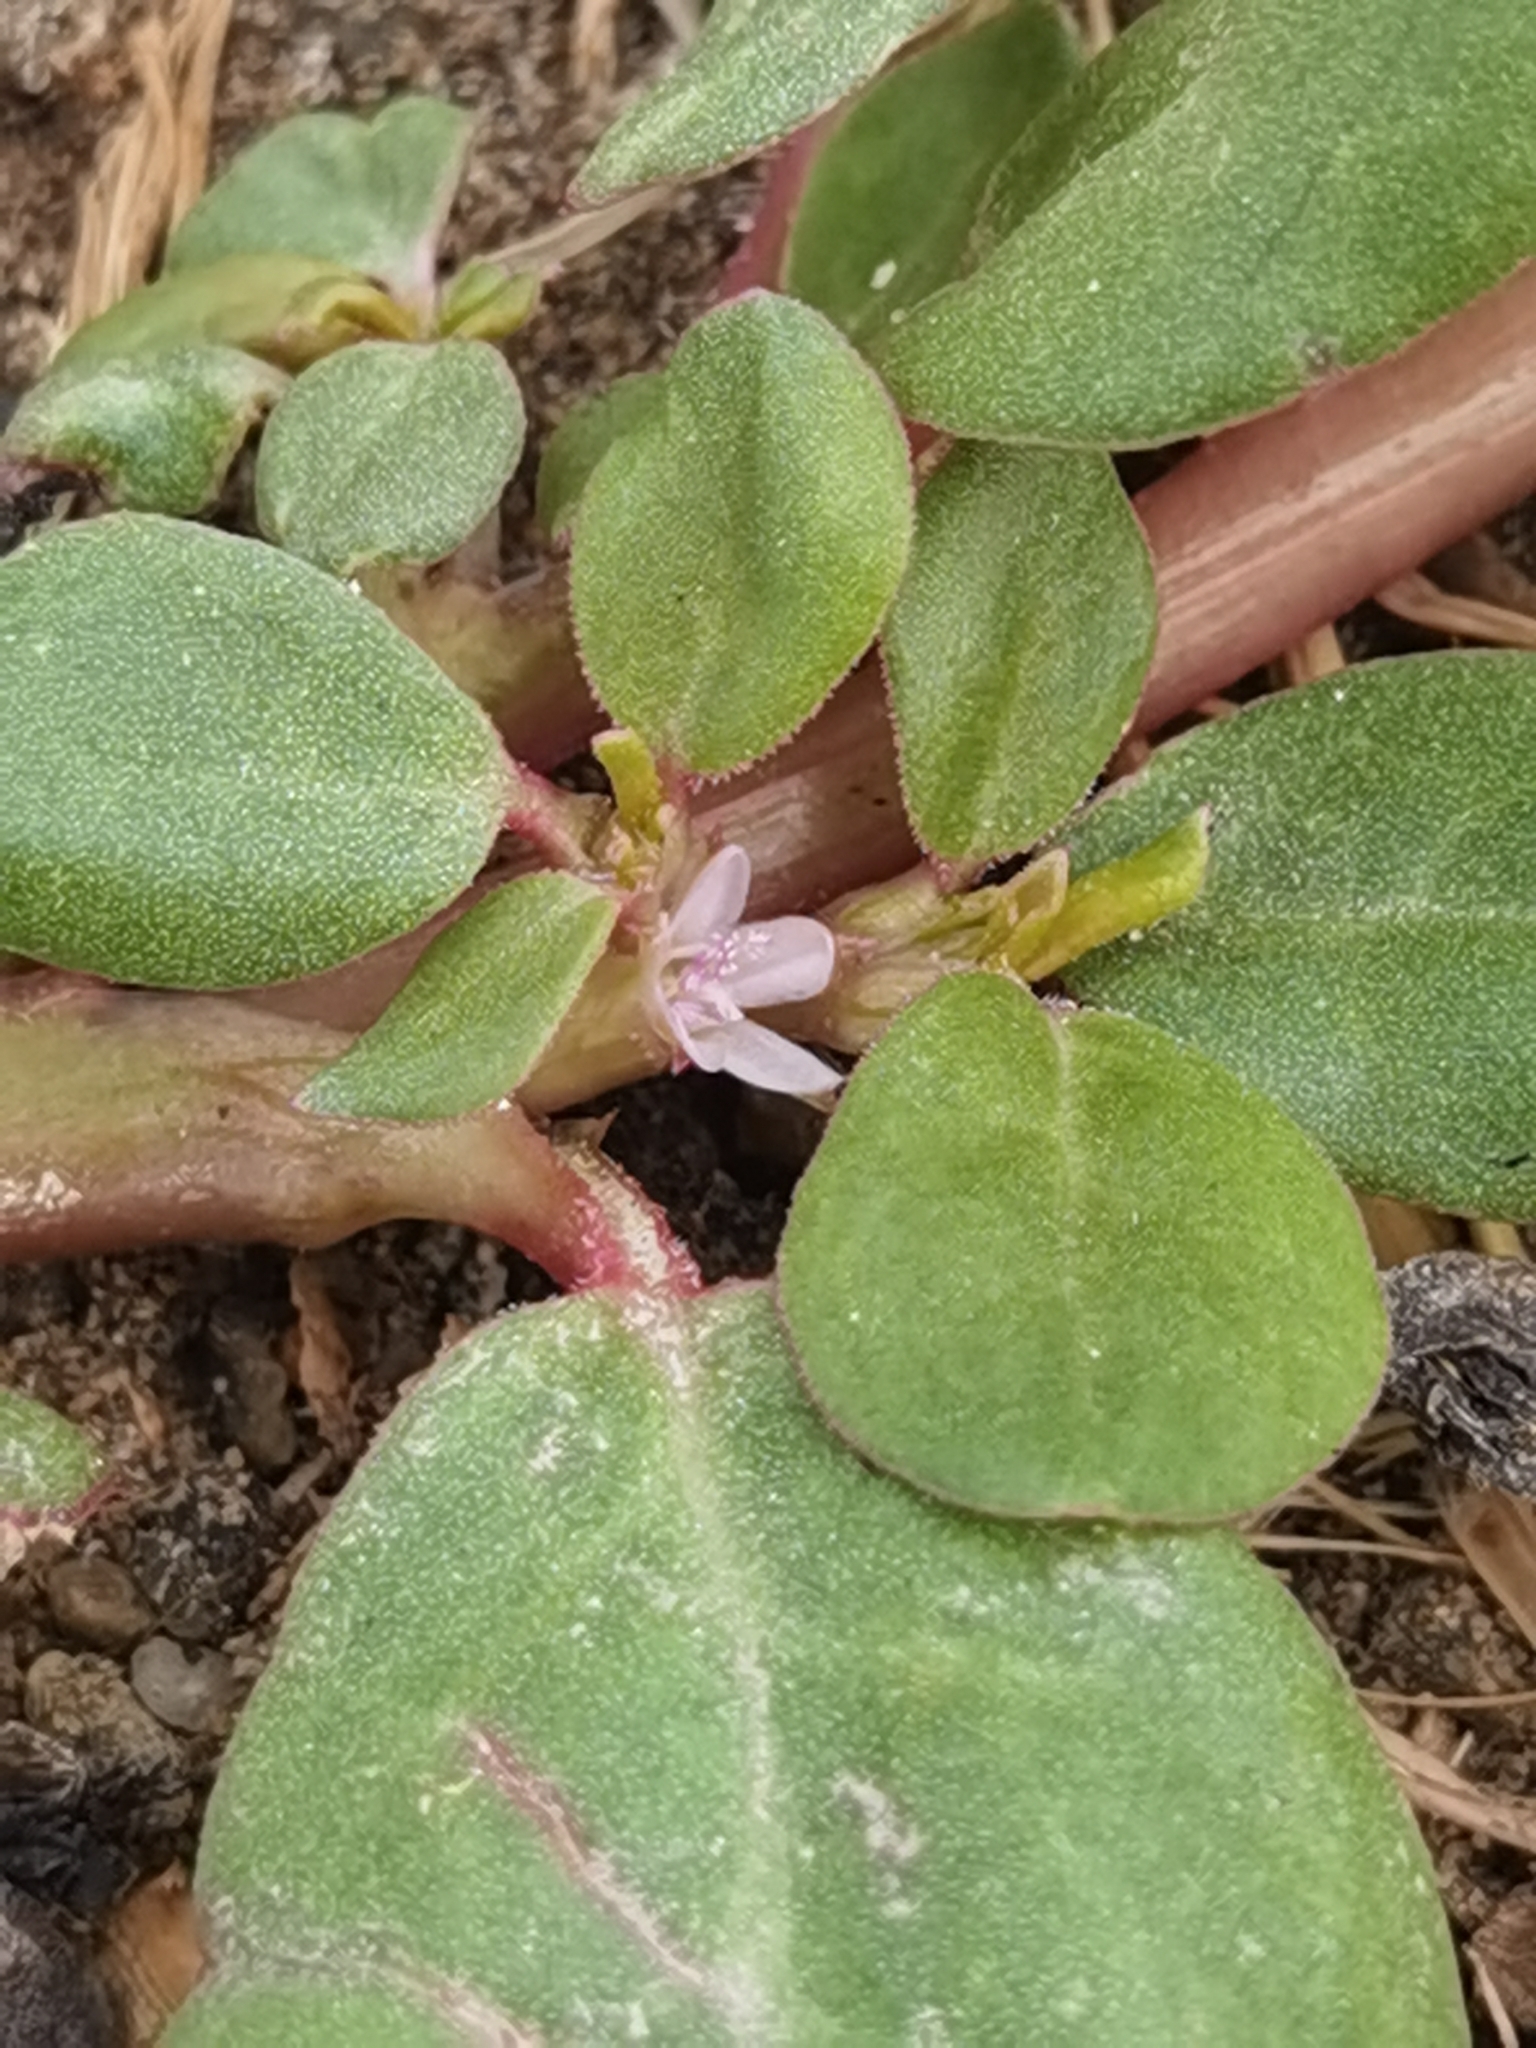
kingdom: Plantae
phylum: Tracheophyta
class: Magnoliopsida
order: Caryophyllales
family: Aizoaceae
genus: Trianthema
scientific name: Trianthema portulacastrum
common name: Desert horsepurslane
